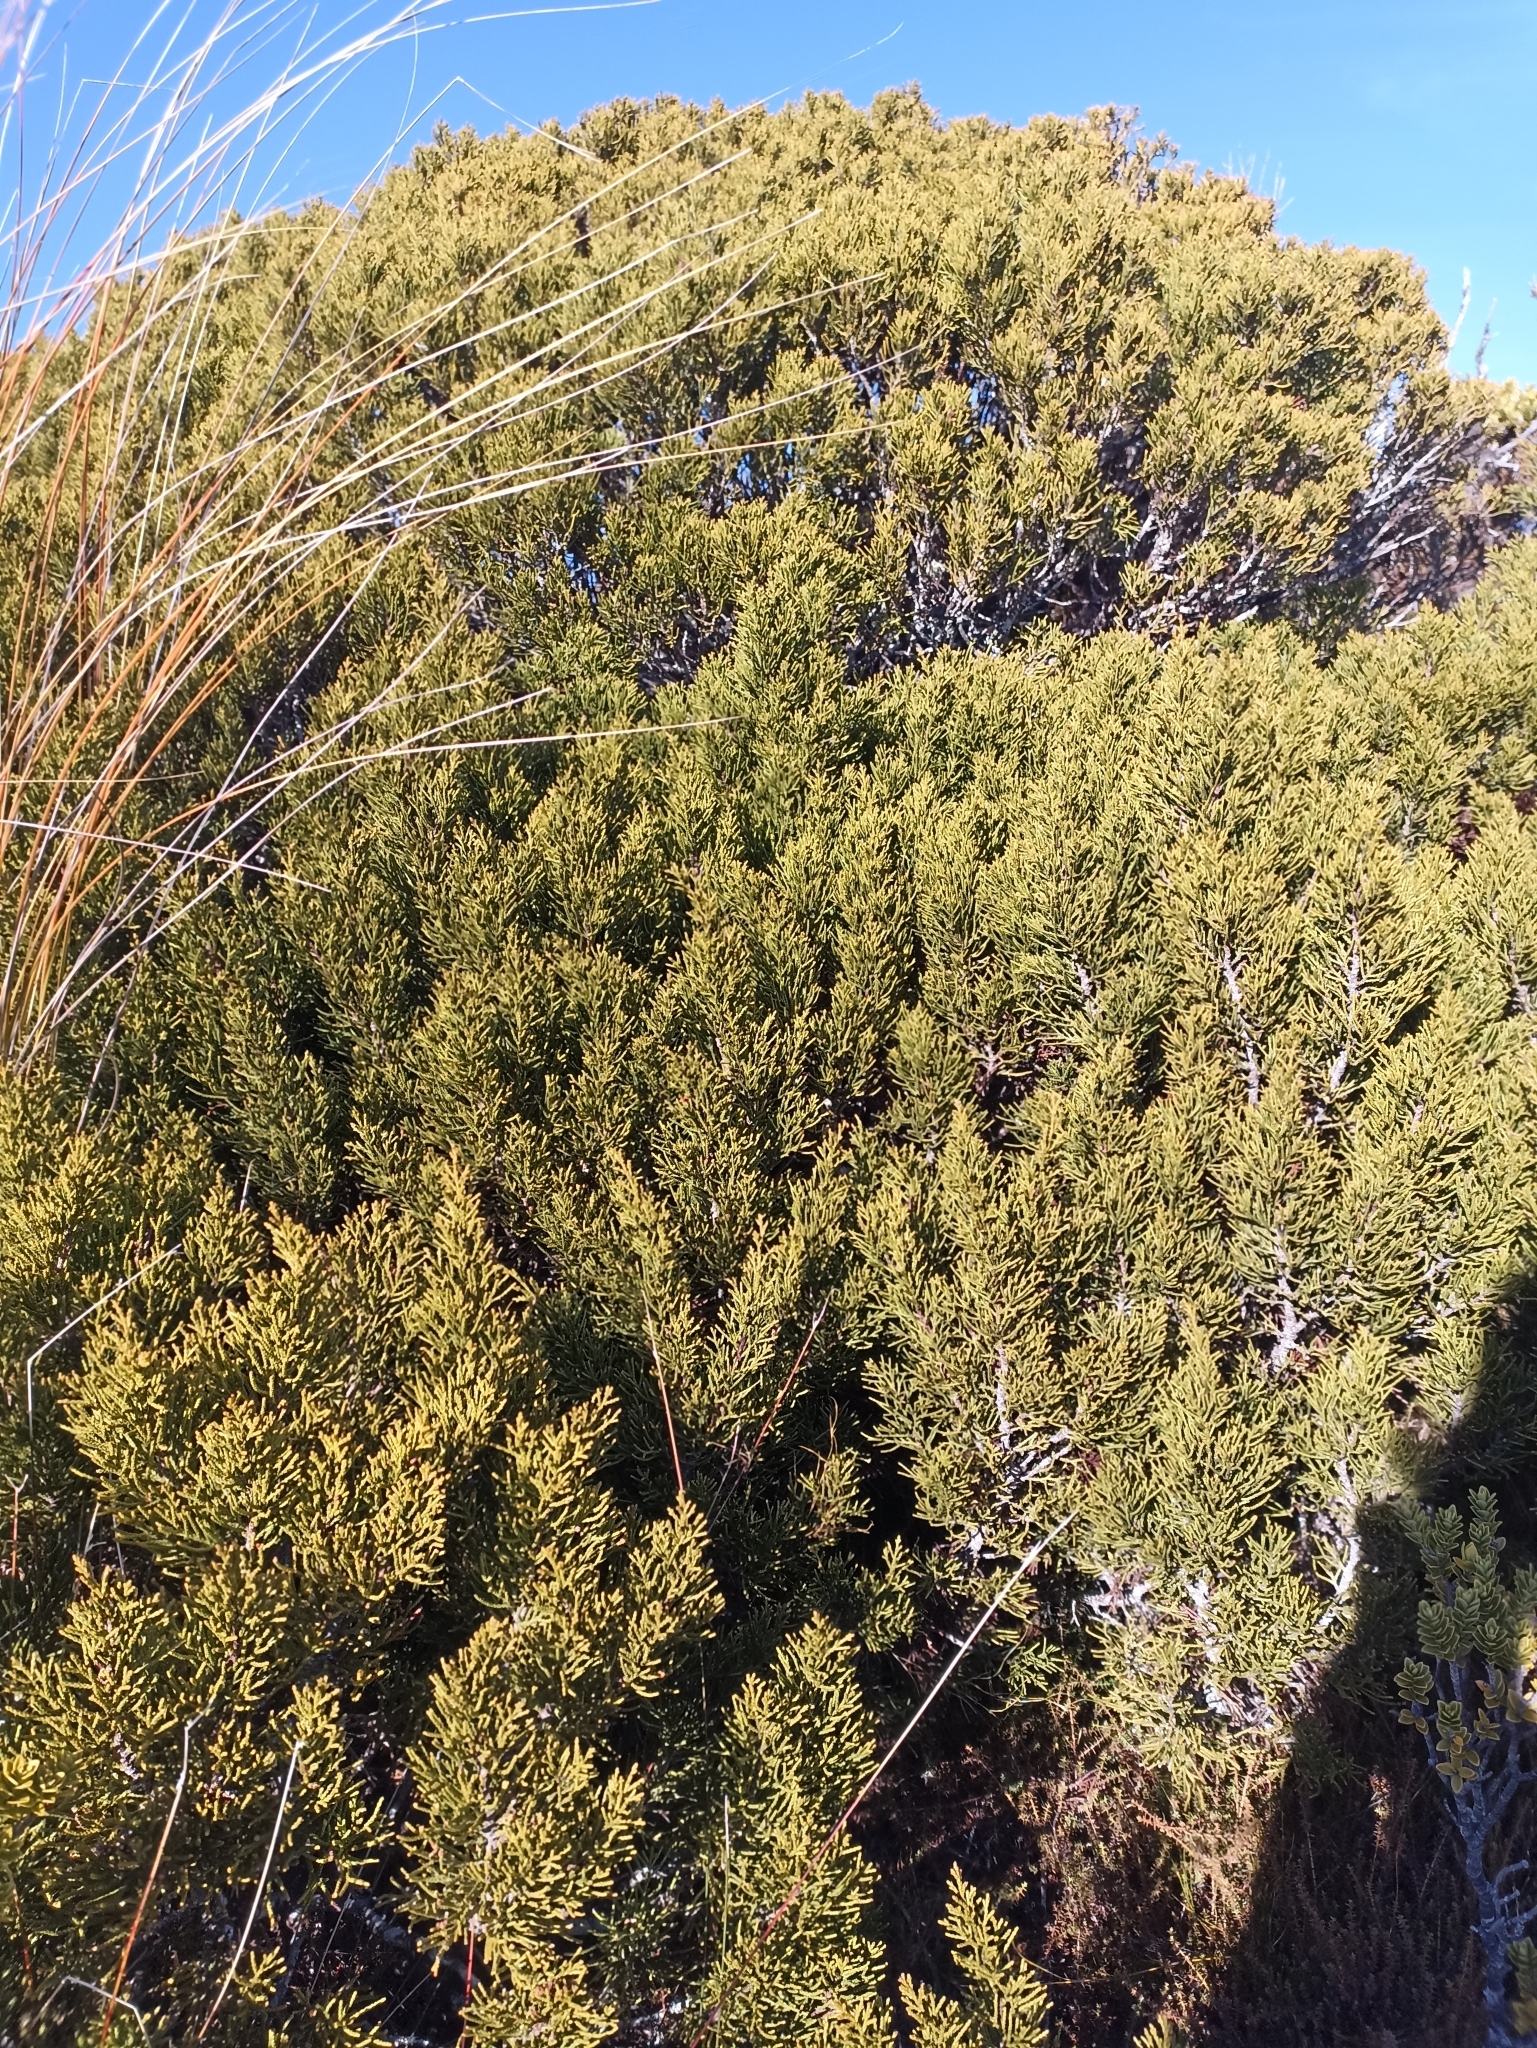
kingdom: Plantae
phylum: Tracheophyta
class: Pinopsida
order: Pinales
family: Podocarpaceae
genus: Halocarpus
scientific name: Halocarpus bidwillii
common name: Bog pine
